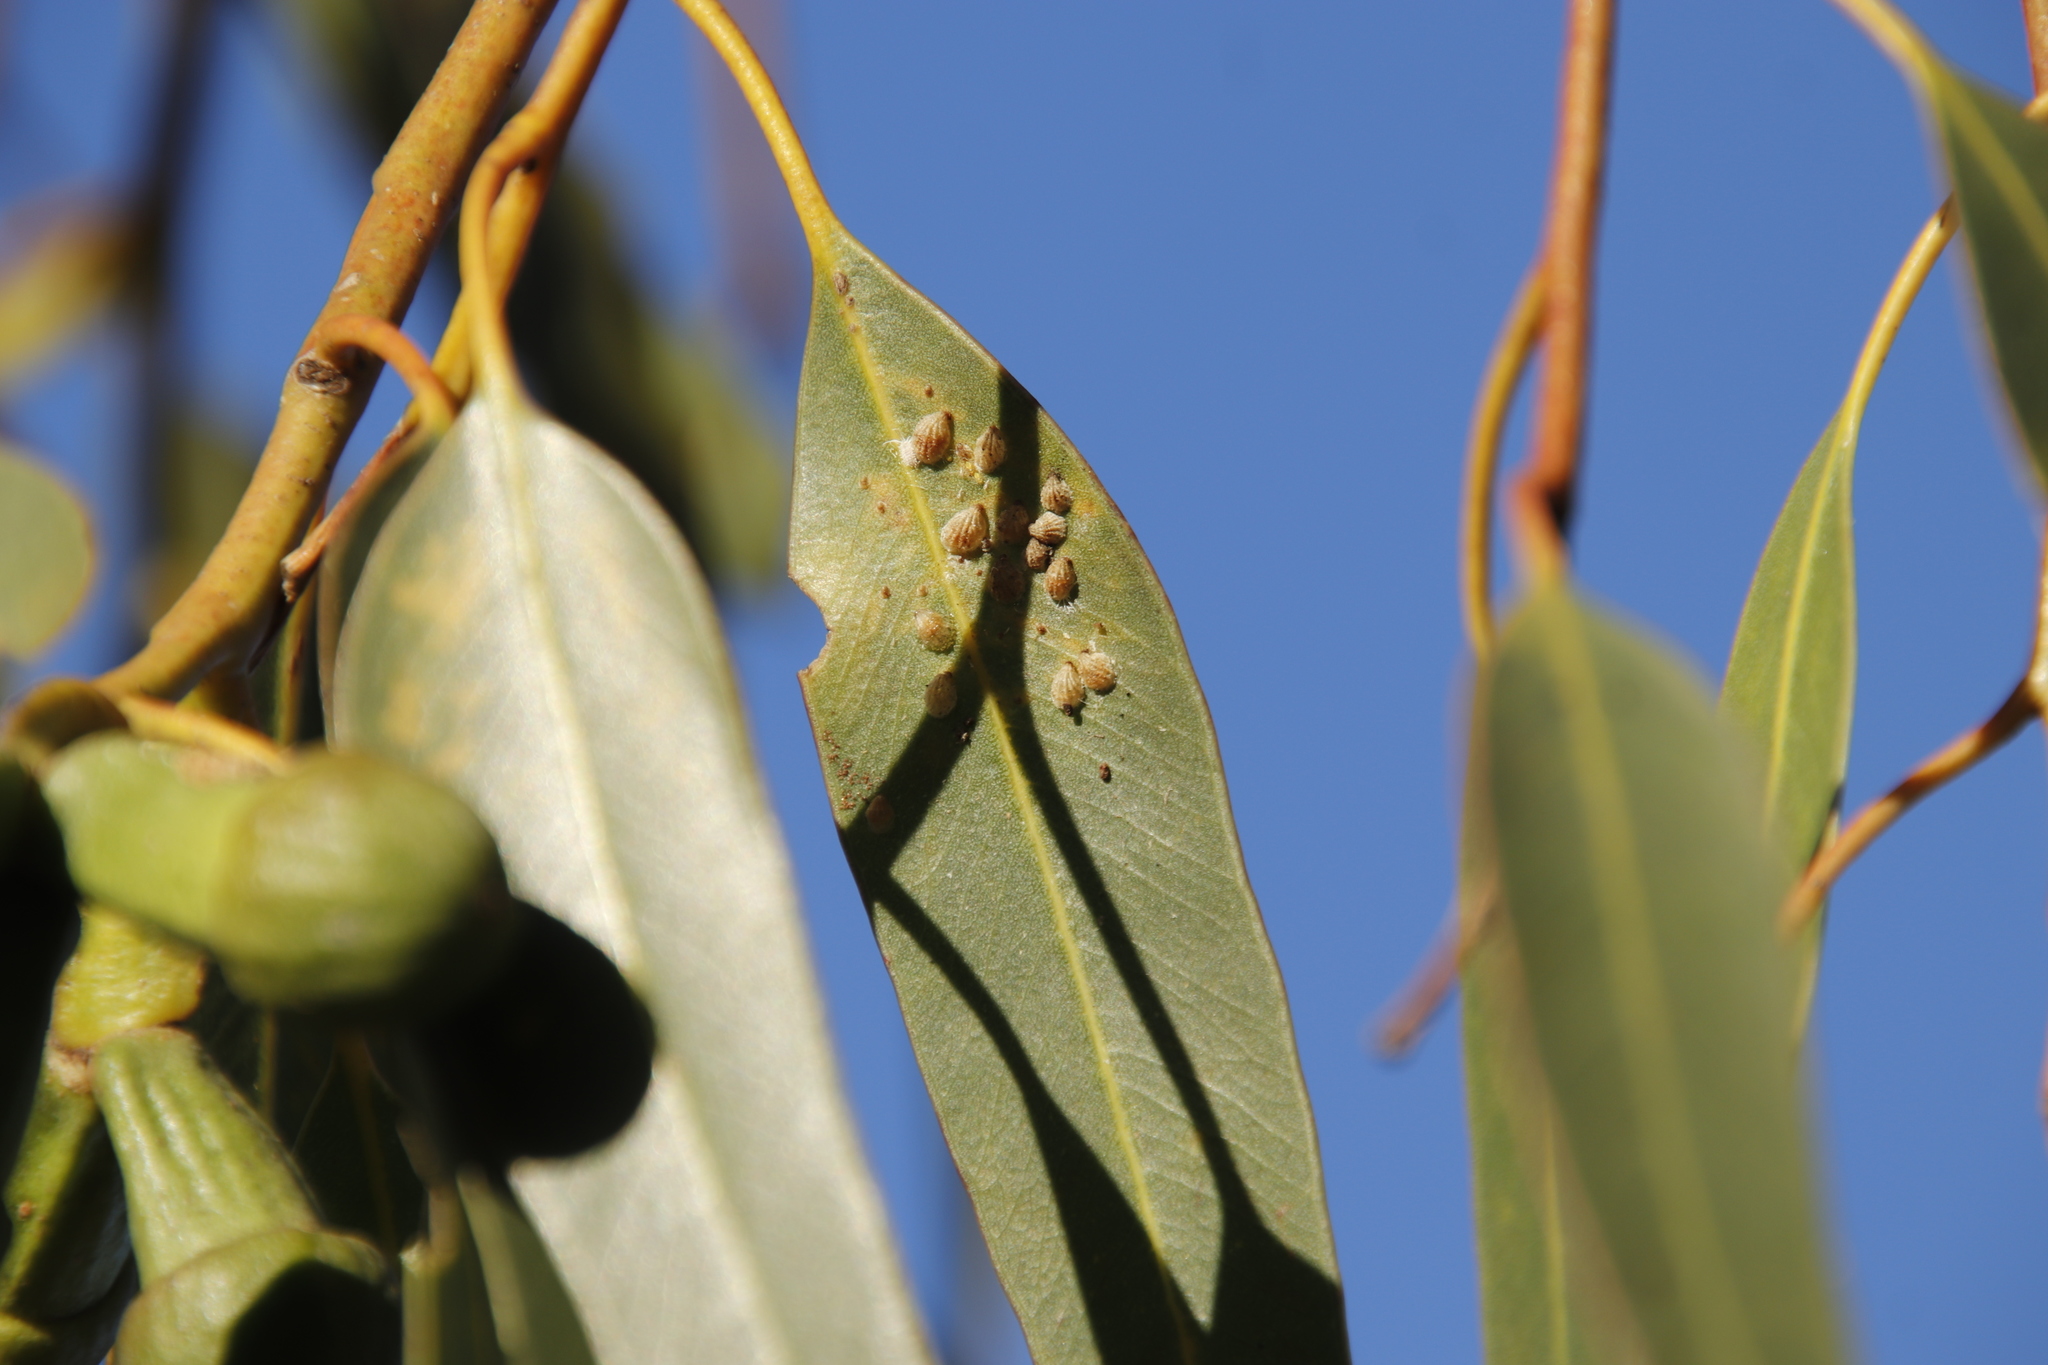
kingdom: Plantae
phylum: Tracheophyta
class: Magnoliopsida
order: Myrtales
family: Myrtaceae
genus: Eucalyptus
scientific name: Eucalyptus gomphocephala
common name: Tuart
